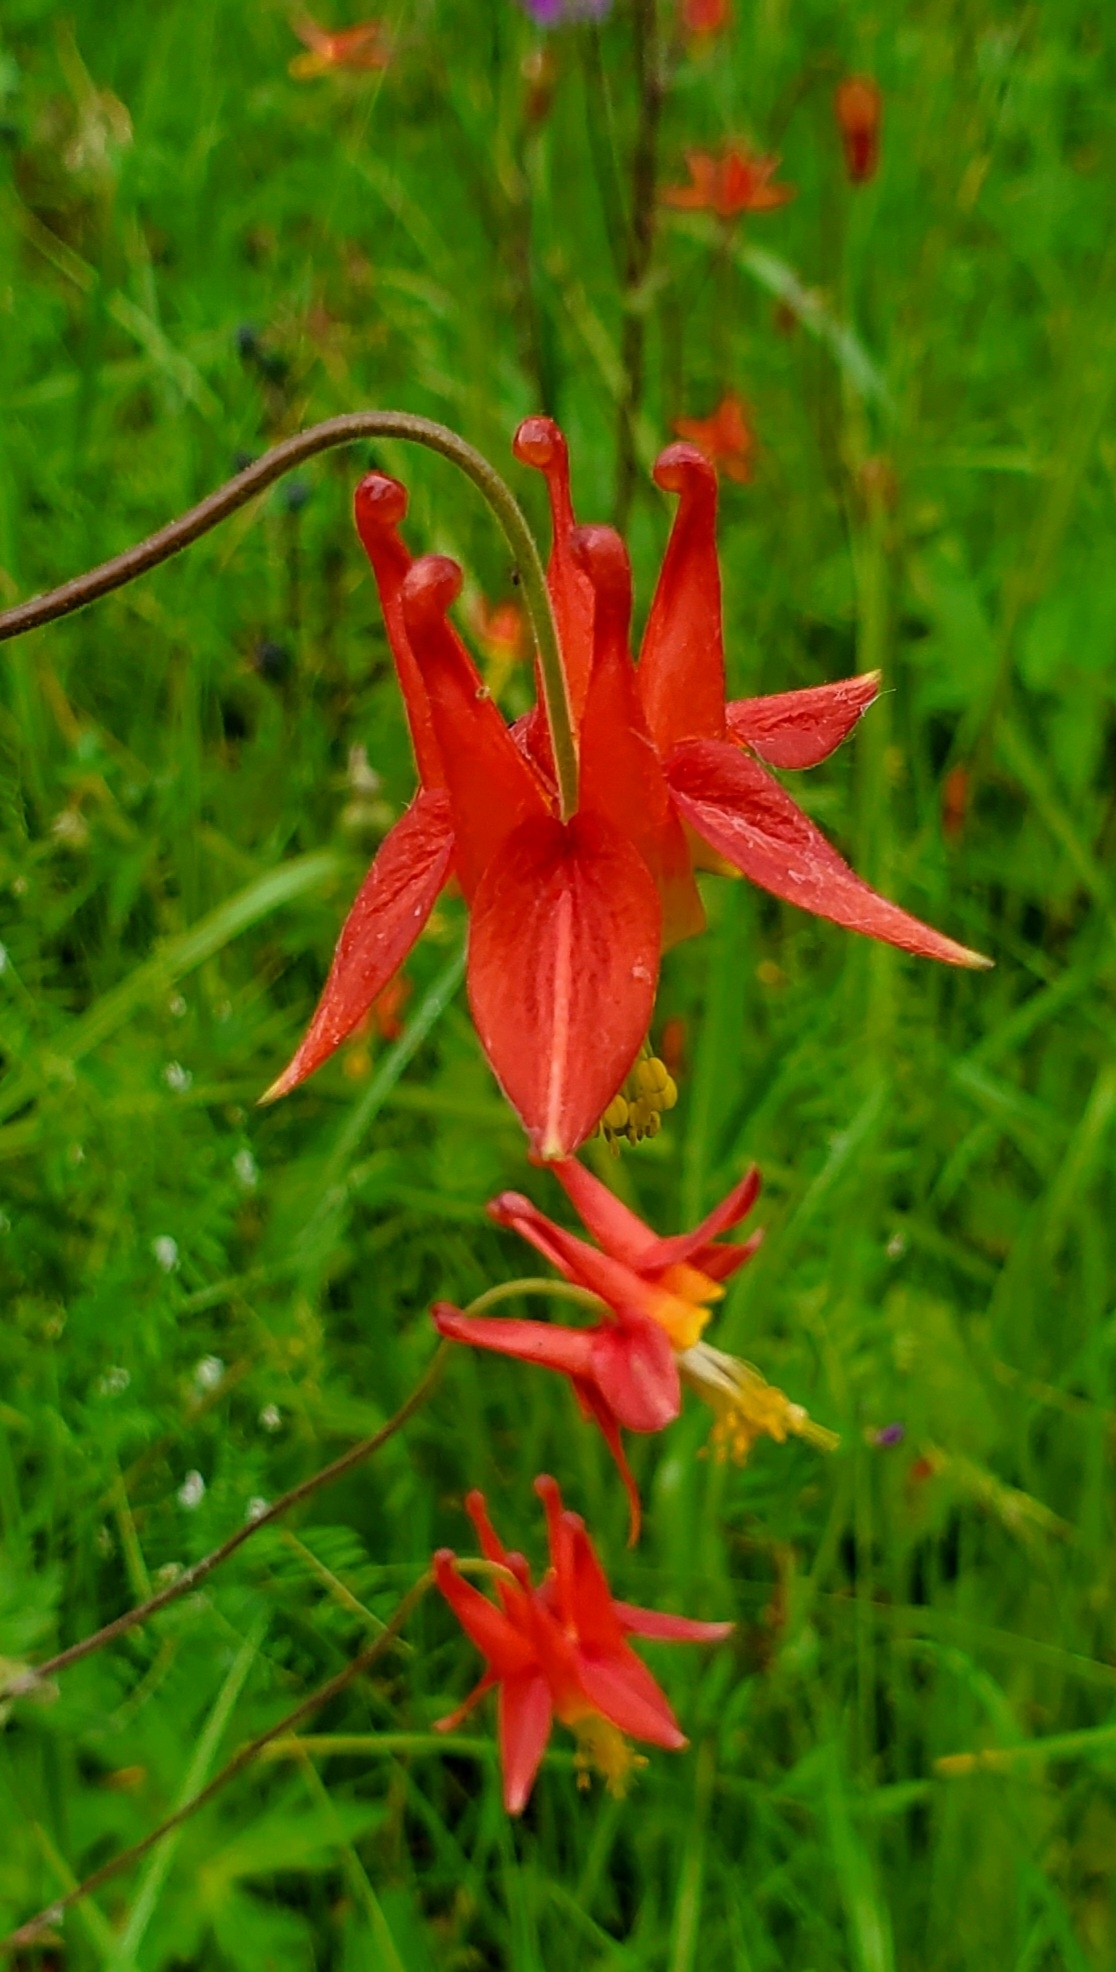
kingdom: Plantae
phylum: Tracheophyta
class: Magnoliopsida
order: Ranunculales
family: Ranunculaceae
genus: Aquilegia
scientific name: Aquilegia formosa
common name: Sitka columbine
